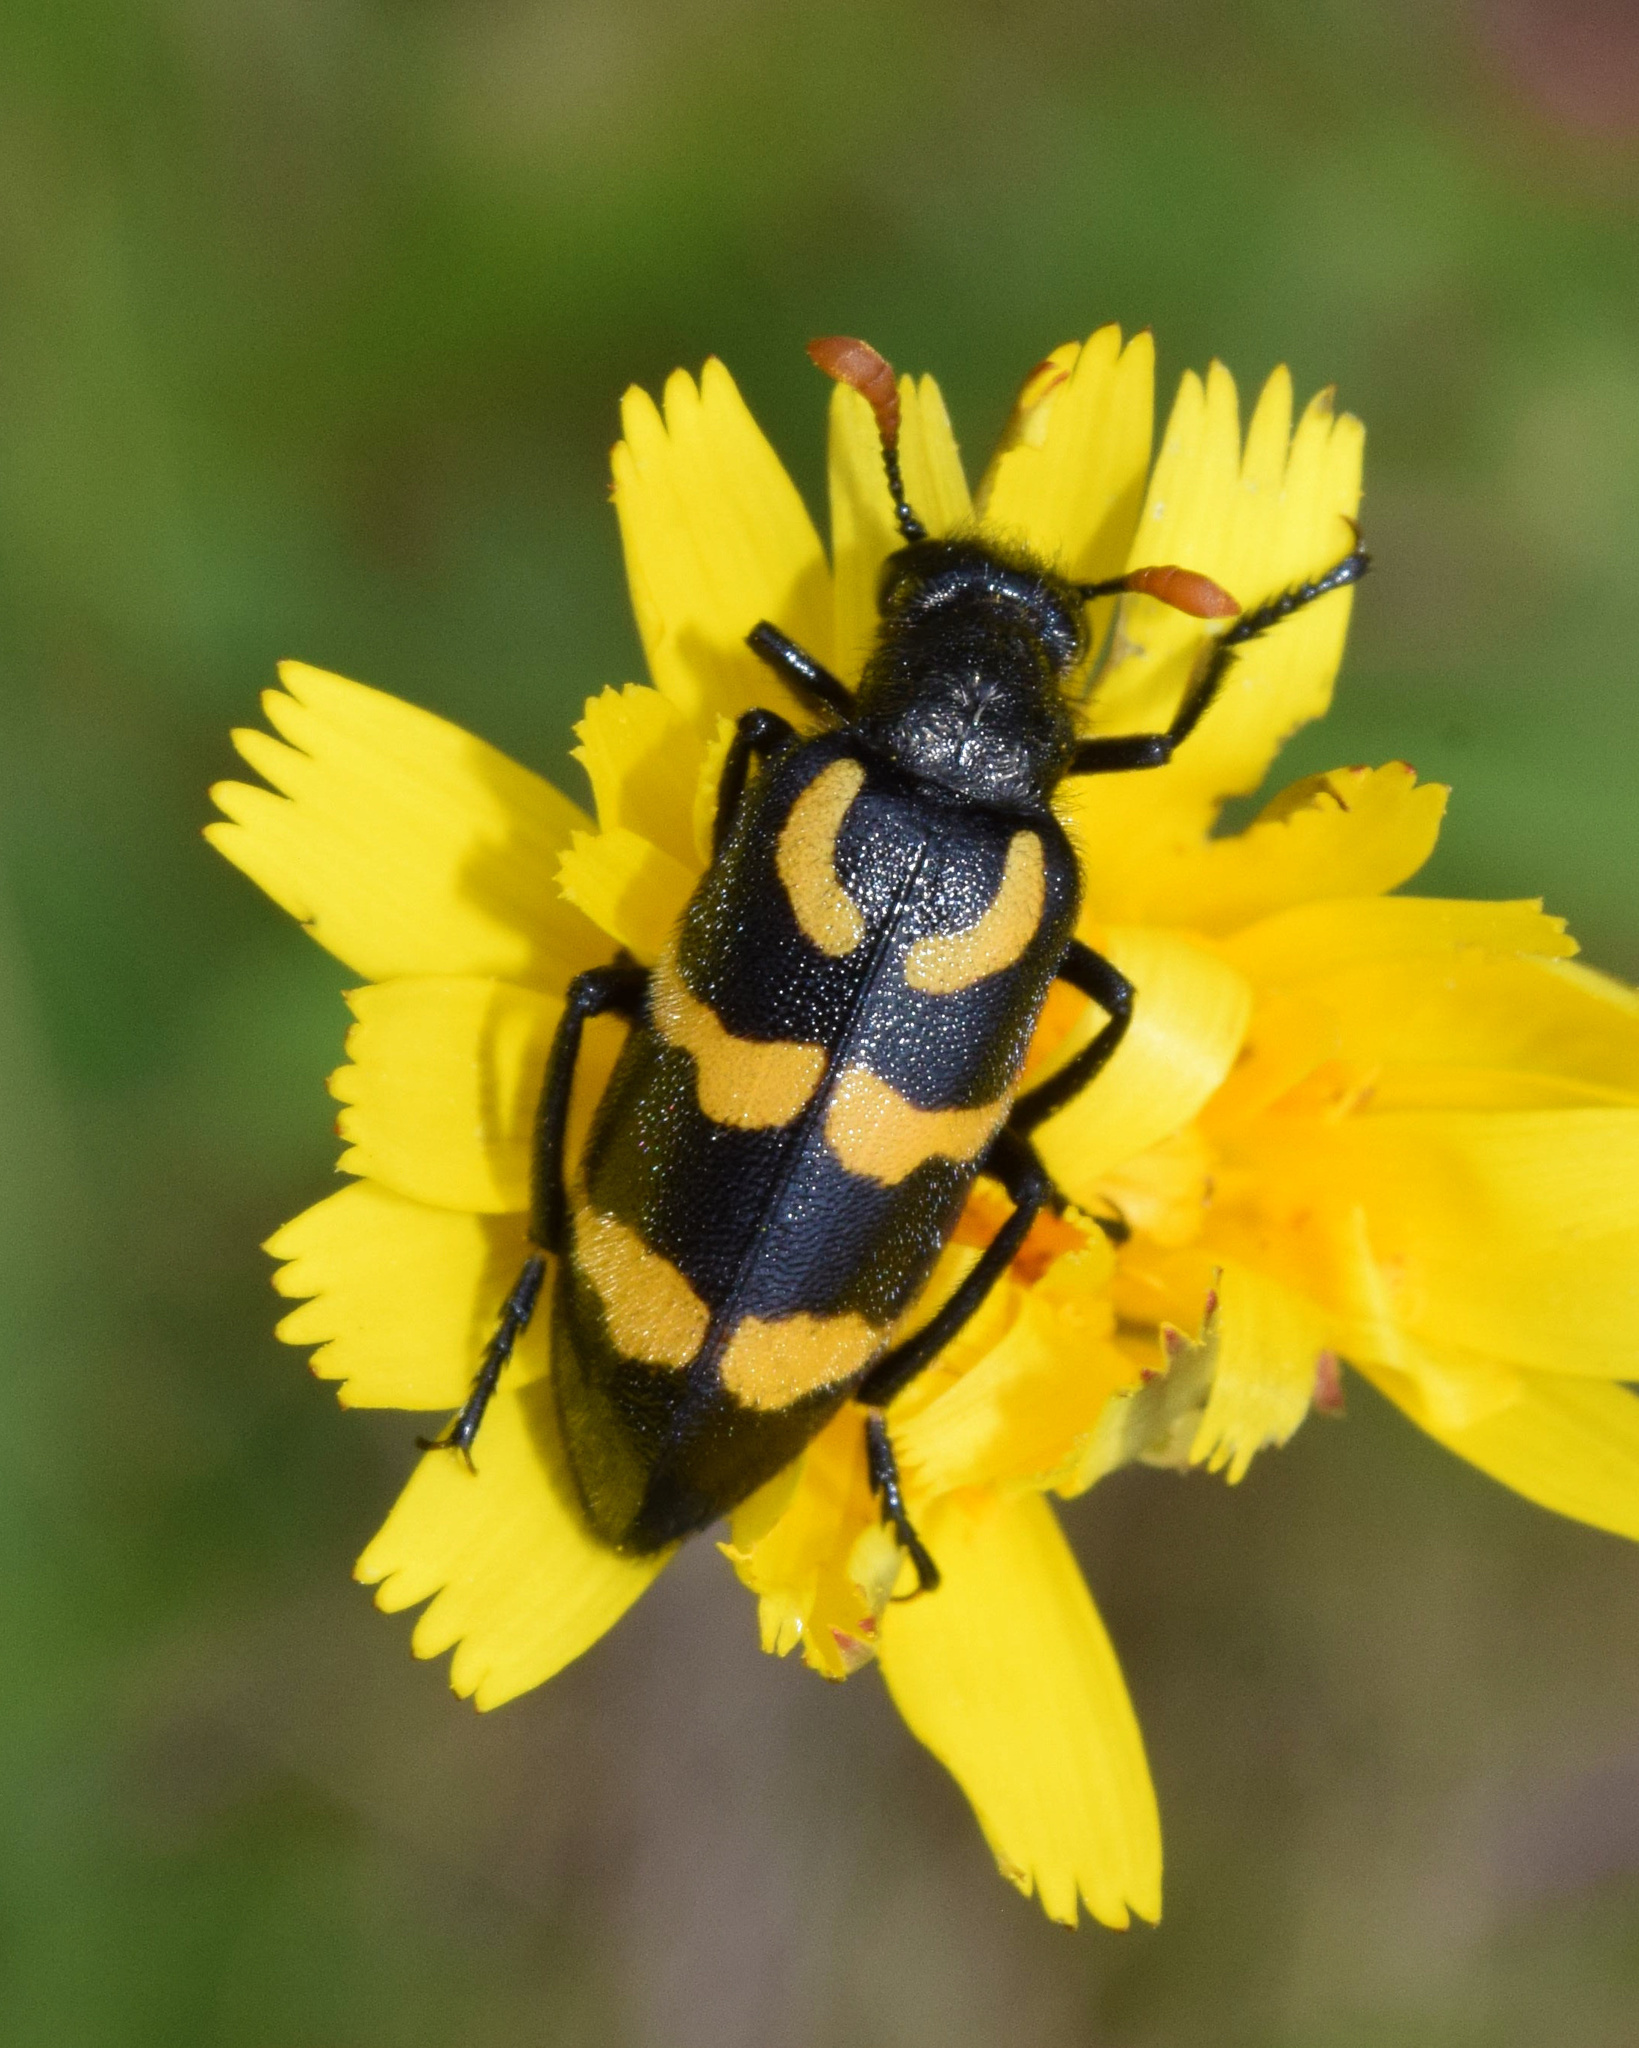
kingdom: Animalia
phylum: Arthropoda
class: Insecta
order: Coleoptera
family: Meloidae
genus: Meloe
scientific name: Meloe lunata
